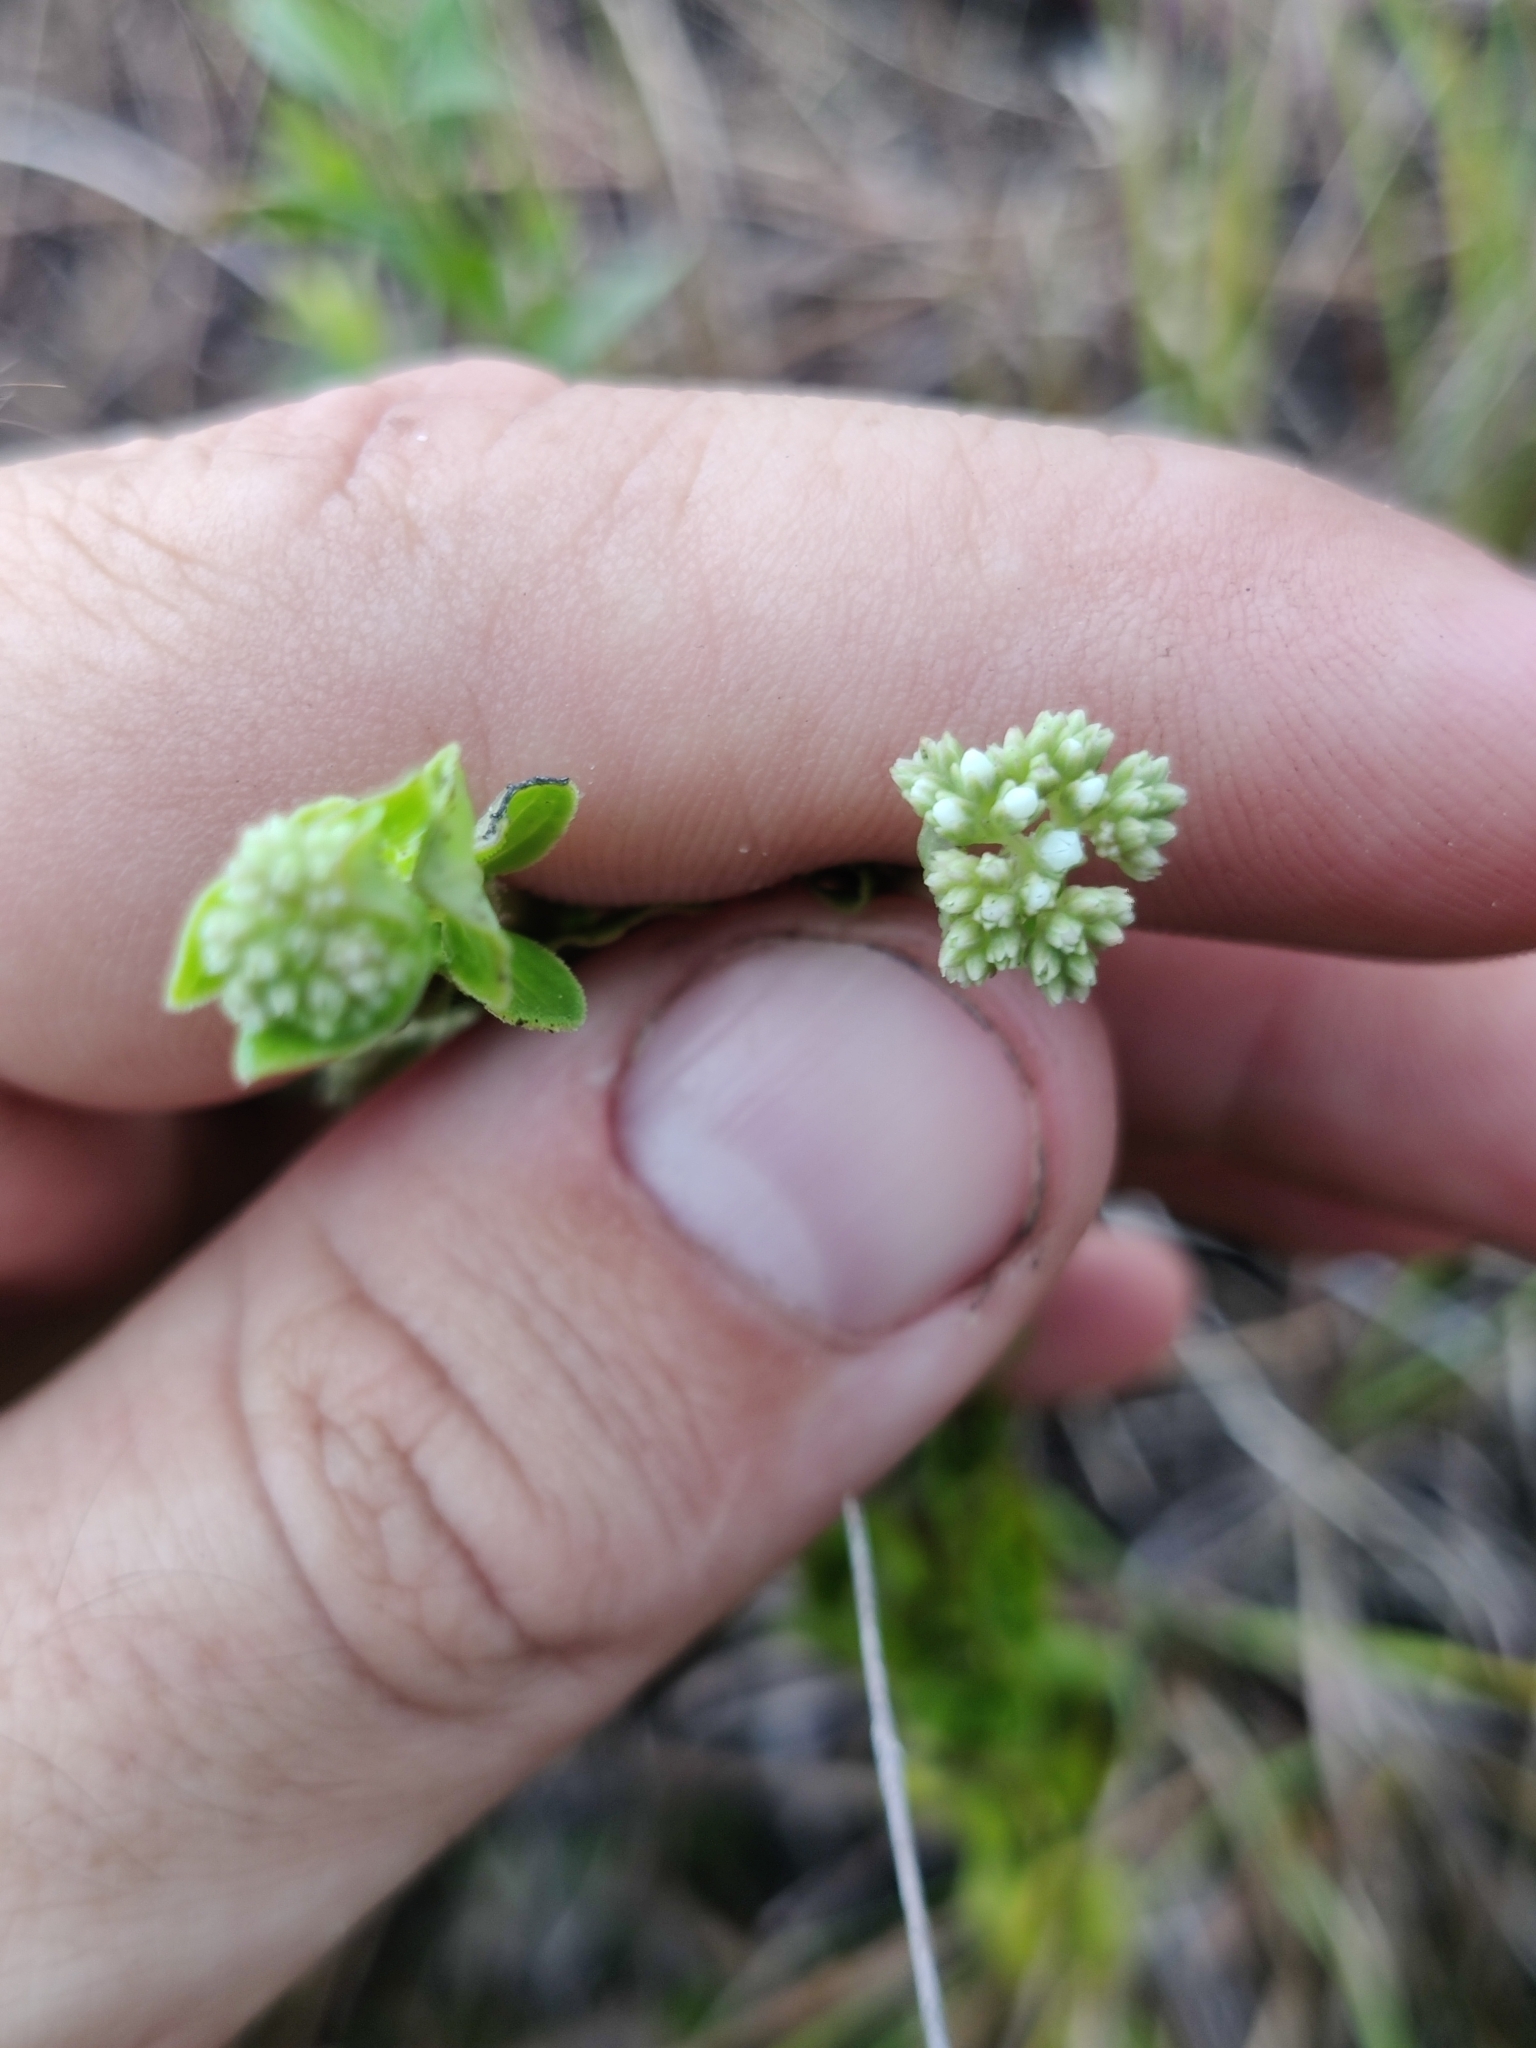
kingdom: Plantae
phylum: Tracheophyta
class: Magnoliopsida
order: Gentianales
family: Loganiaceae
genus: Mitreola
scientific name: Mitreola sessilifolia
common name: Swamp hornpod
